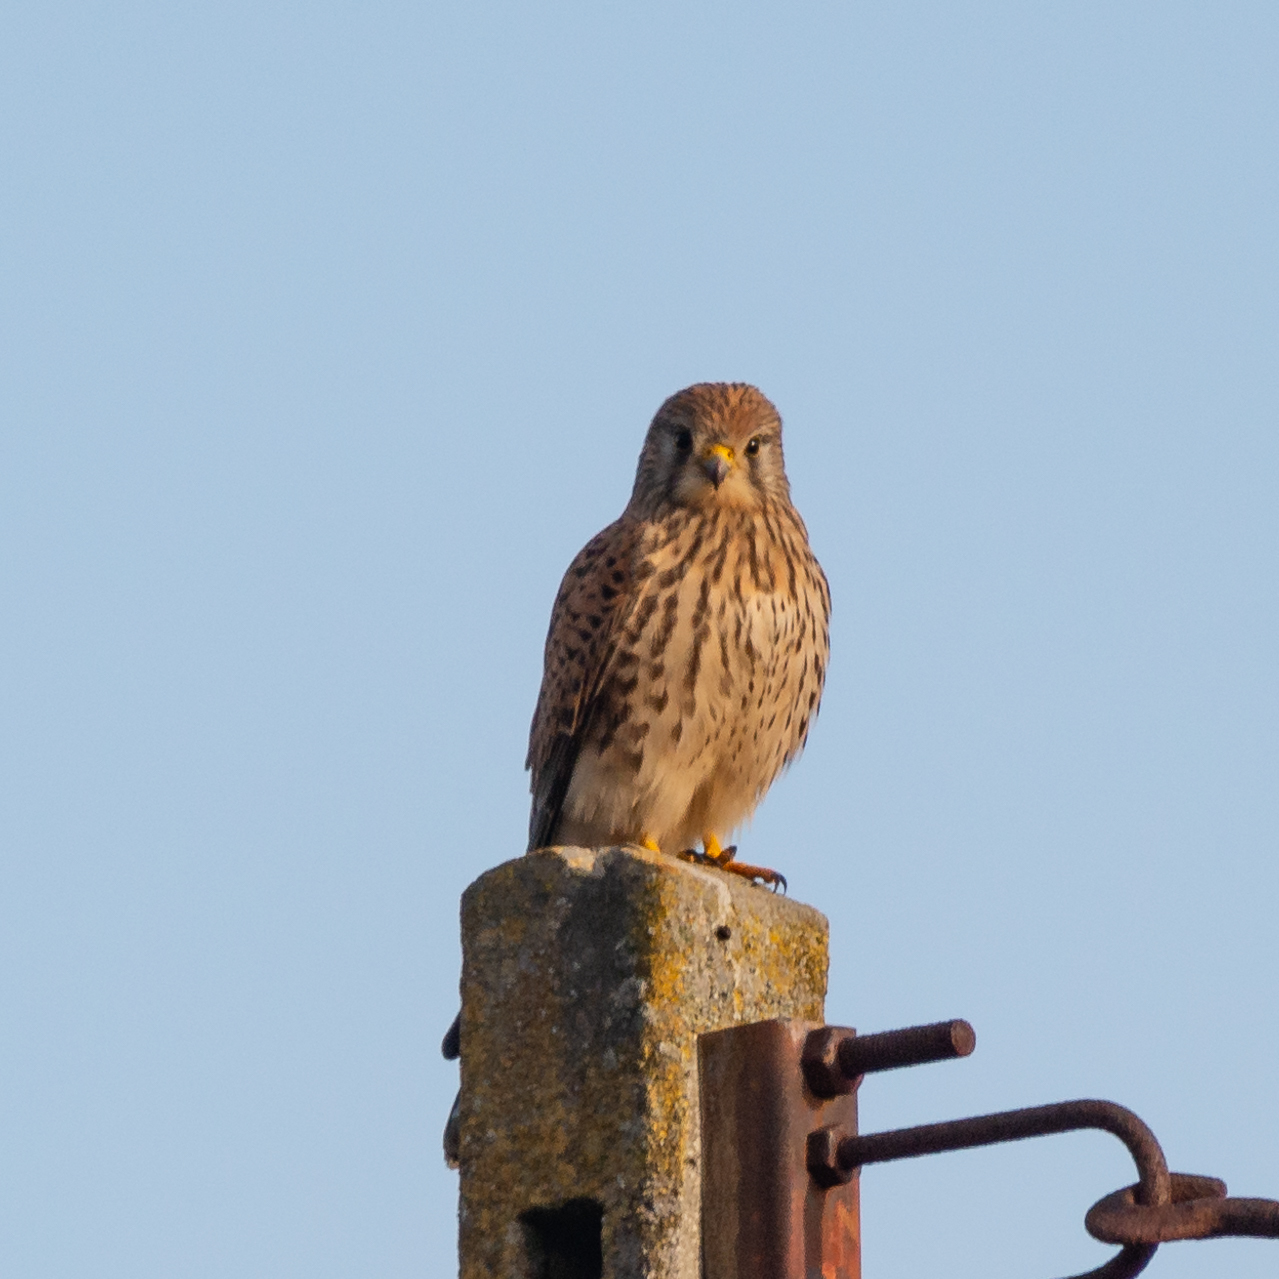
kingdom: Animalia
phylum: Chordata
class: Aves
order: Falconiformes
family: Falconidae
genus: Falco
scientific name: Falco tinnunculus
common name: Common kestrel
